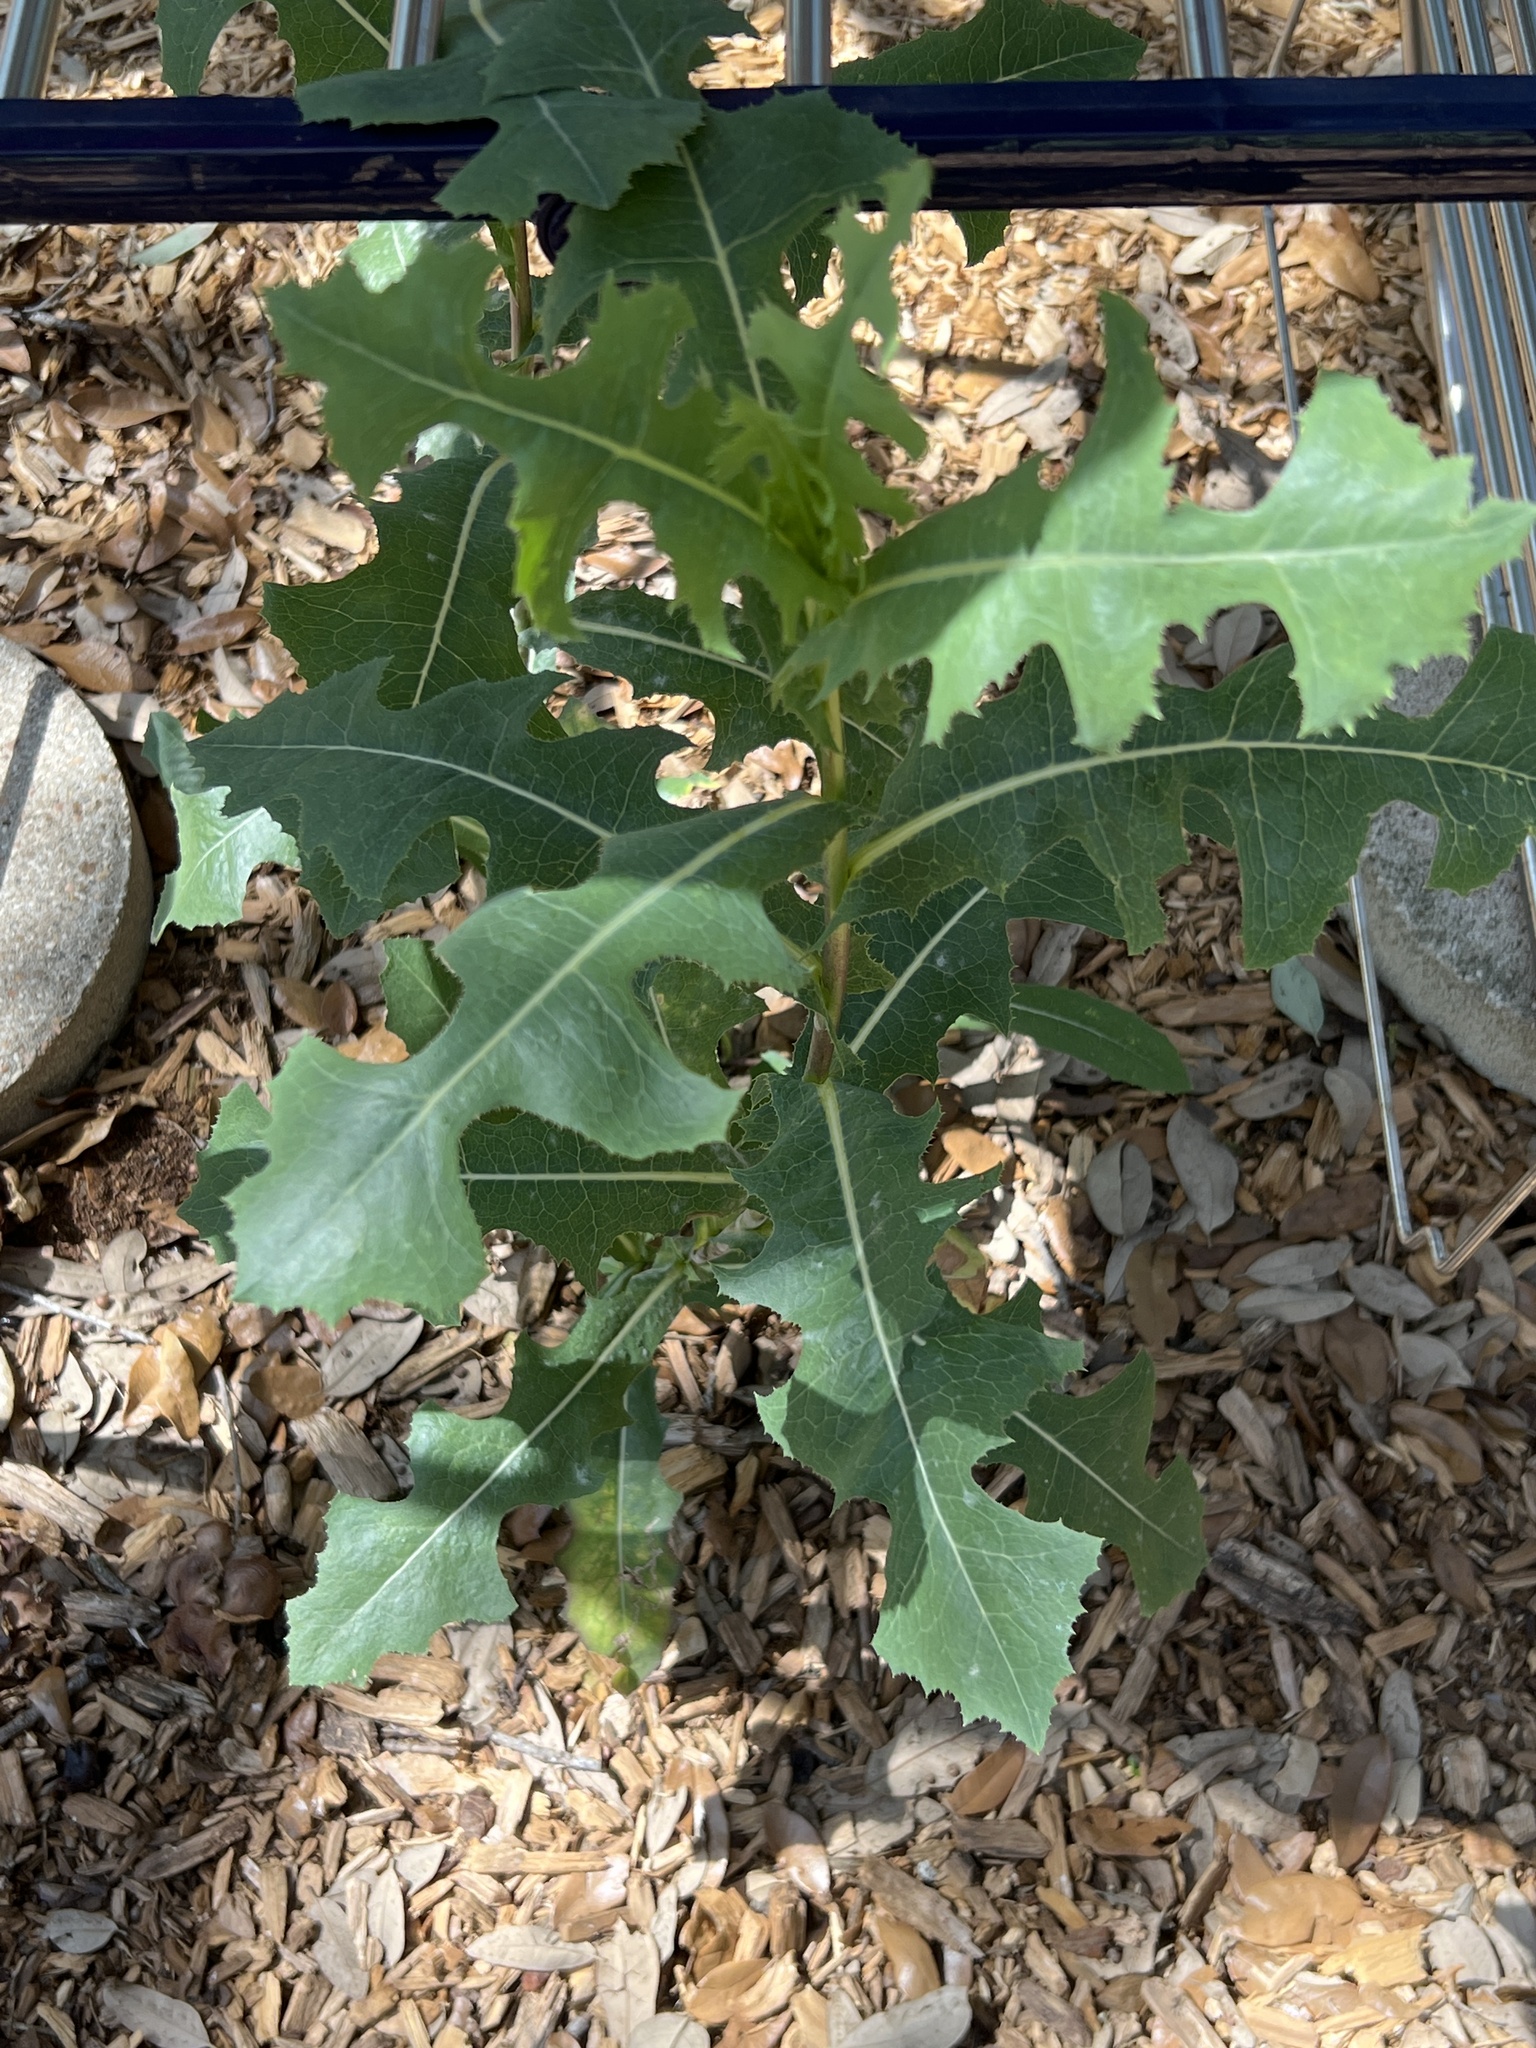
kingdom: Plantae
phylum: Tracheophyta
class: Magnoliopsida
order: Asterales
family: Asteraceae
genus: Lactuca
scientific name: Lactuca serriola
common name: Prickly lettuce
